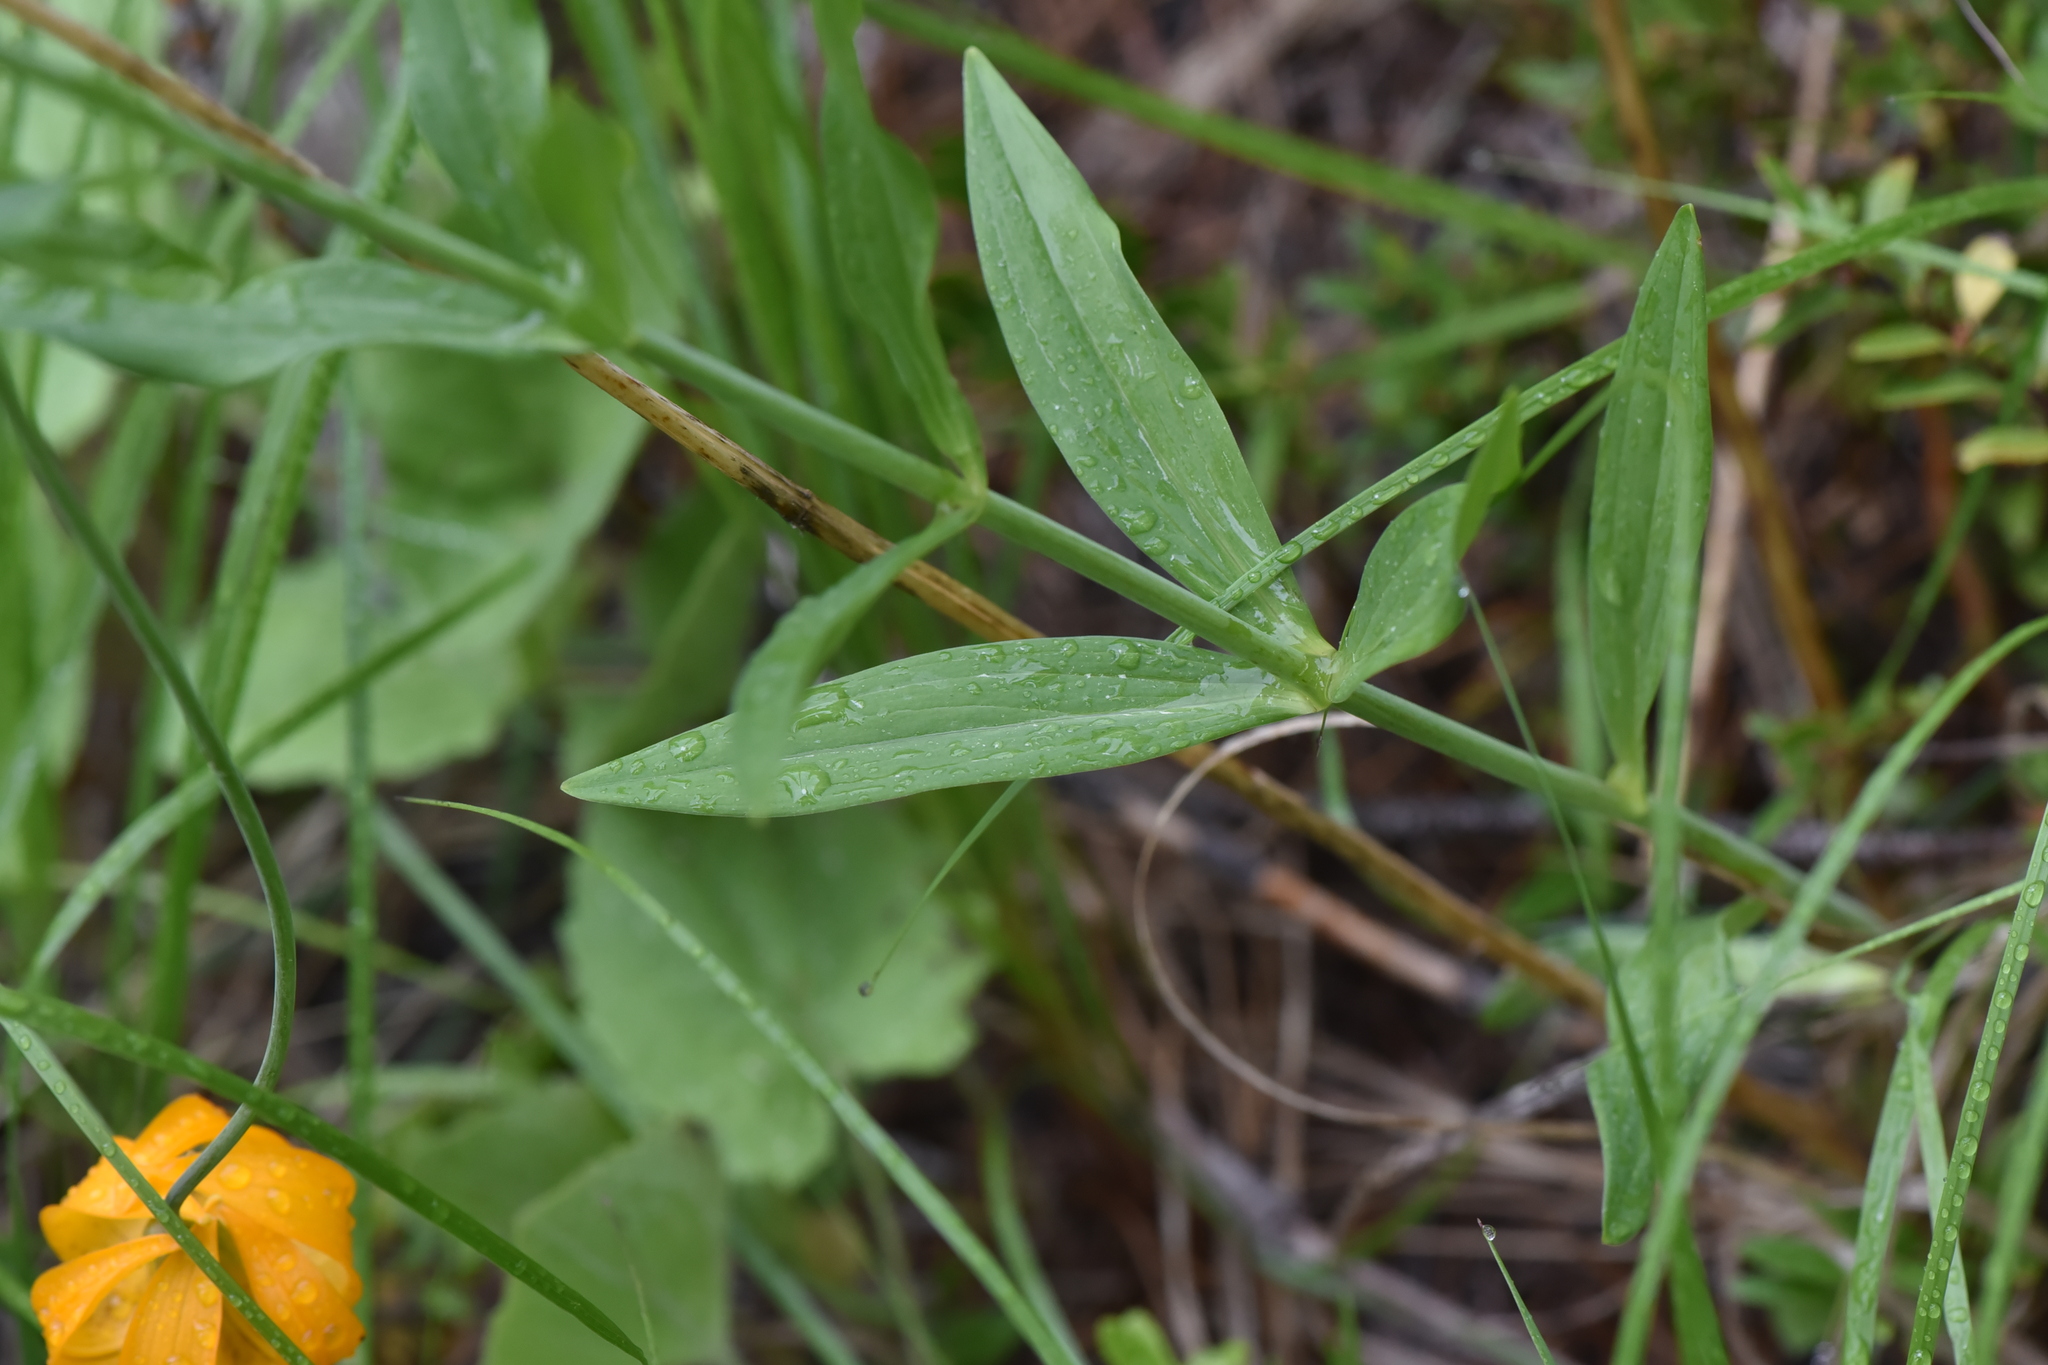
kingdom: Plantae
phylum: Tracheophyta
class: Liliopsida
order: Liliales
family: Liliaceae
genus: Lilium
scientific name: Lilium columbianum
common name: Columbia lily
